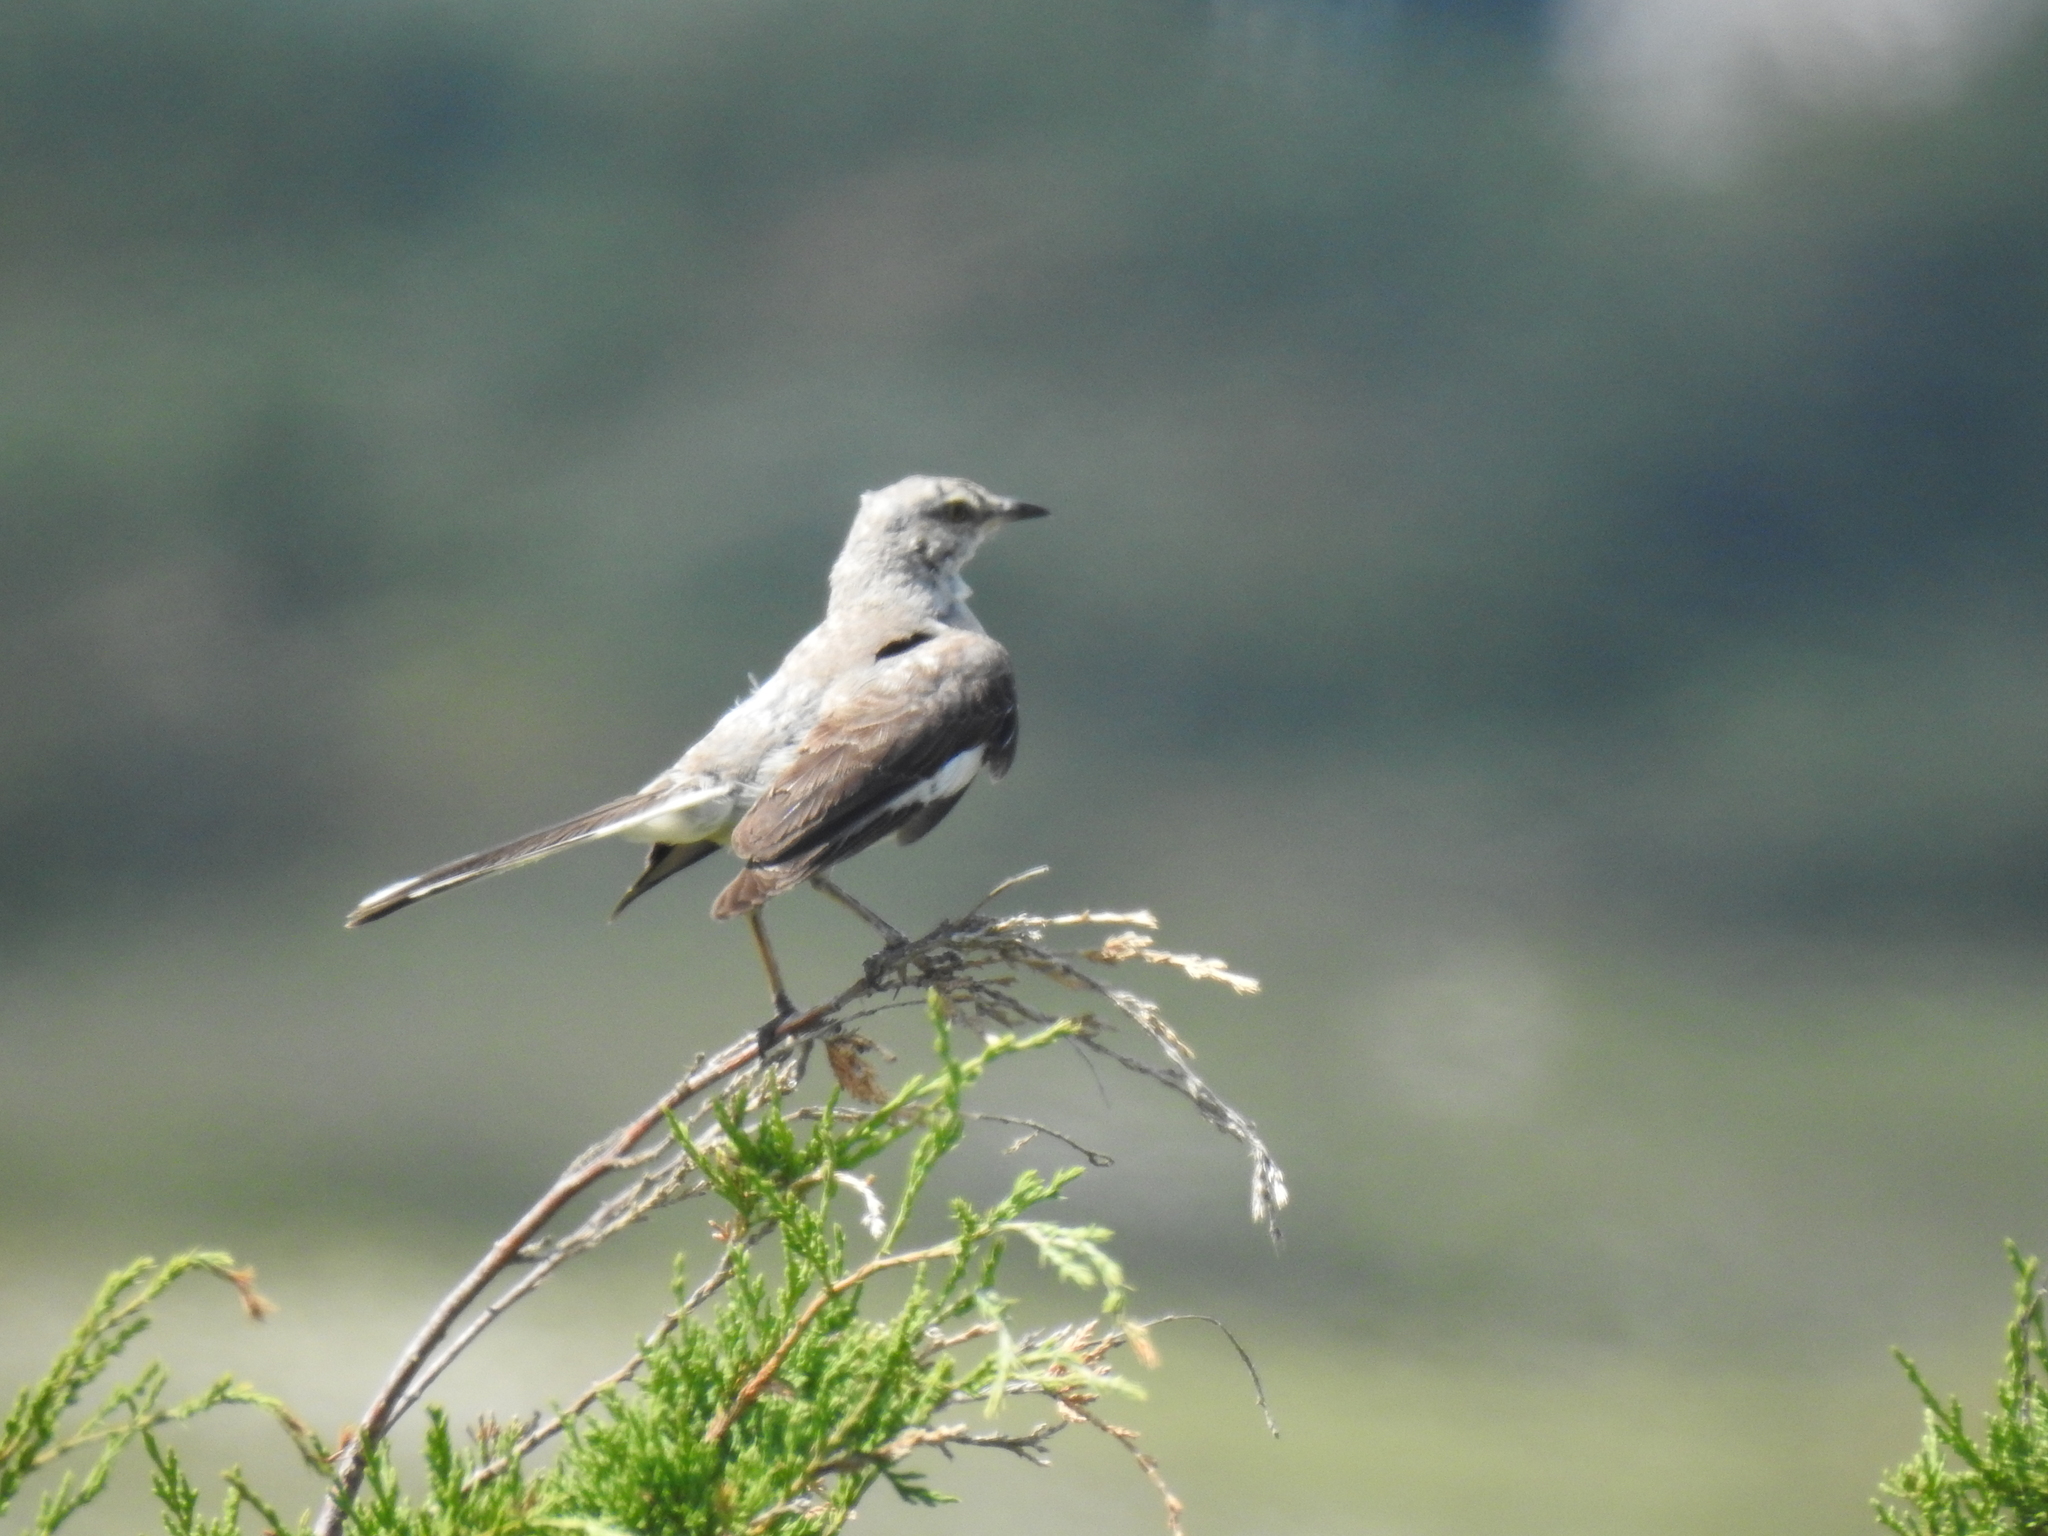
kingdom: Animalia
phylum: Chordata
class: Aves
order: Passeriformes
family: Mimidae
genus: Mimus
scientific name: Mimus polyglottos
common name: Northern mockingbird
